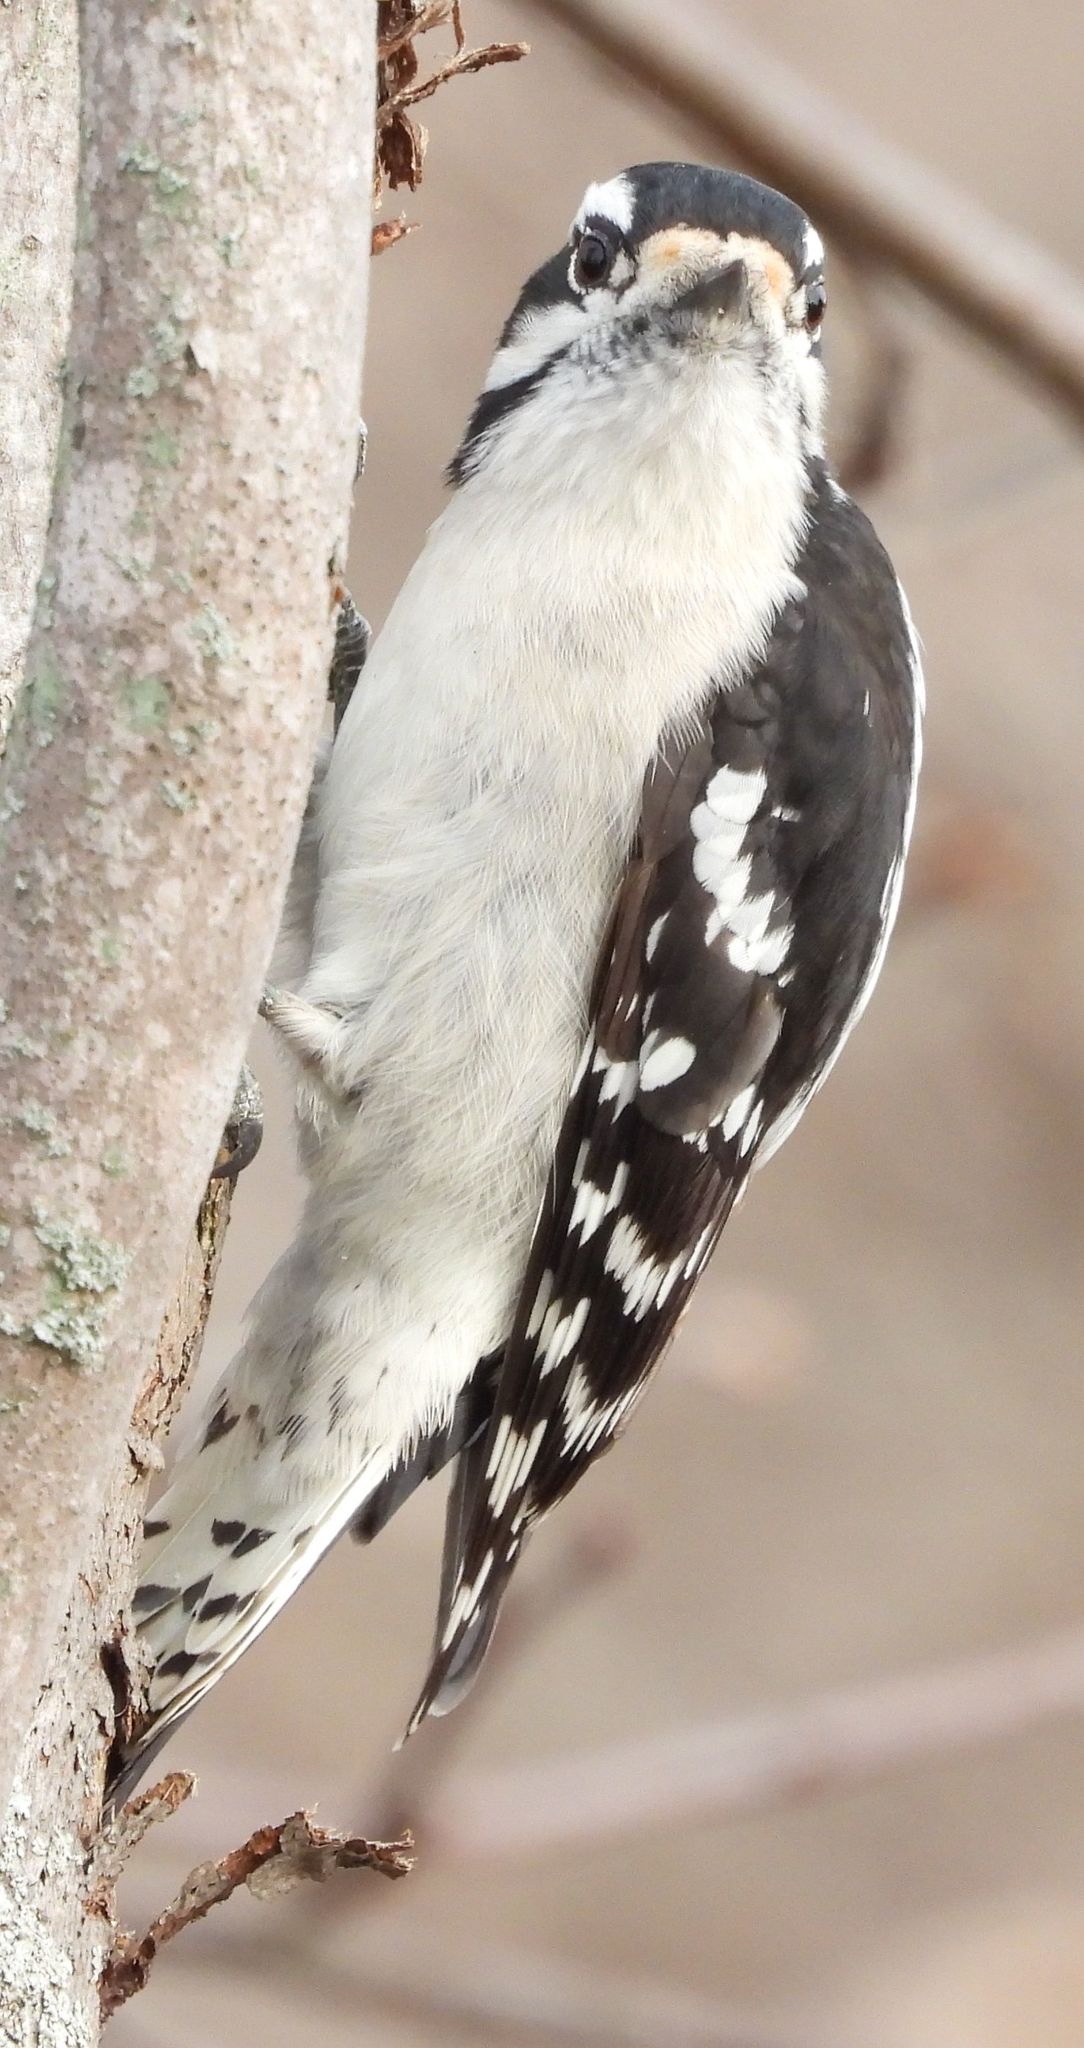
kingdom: Animalia
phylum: Chordata
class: Aves
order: Piciformes
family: Picidae
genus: Dryobates
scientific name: Dryobates pubescens
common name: Downy woodpecker
